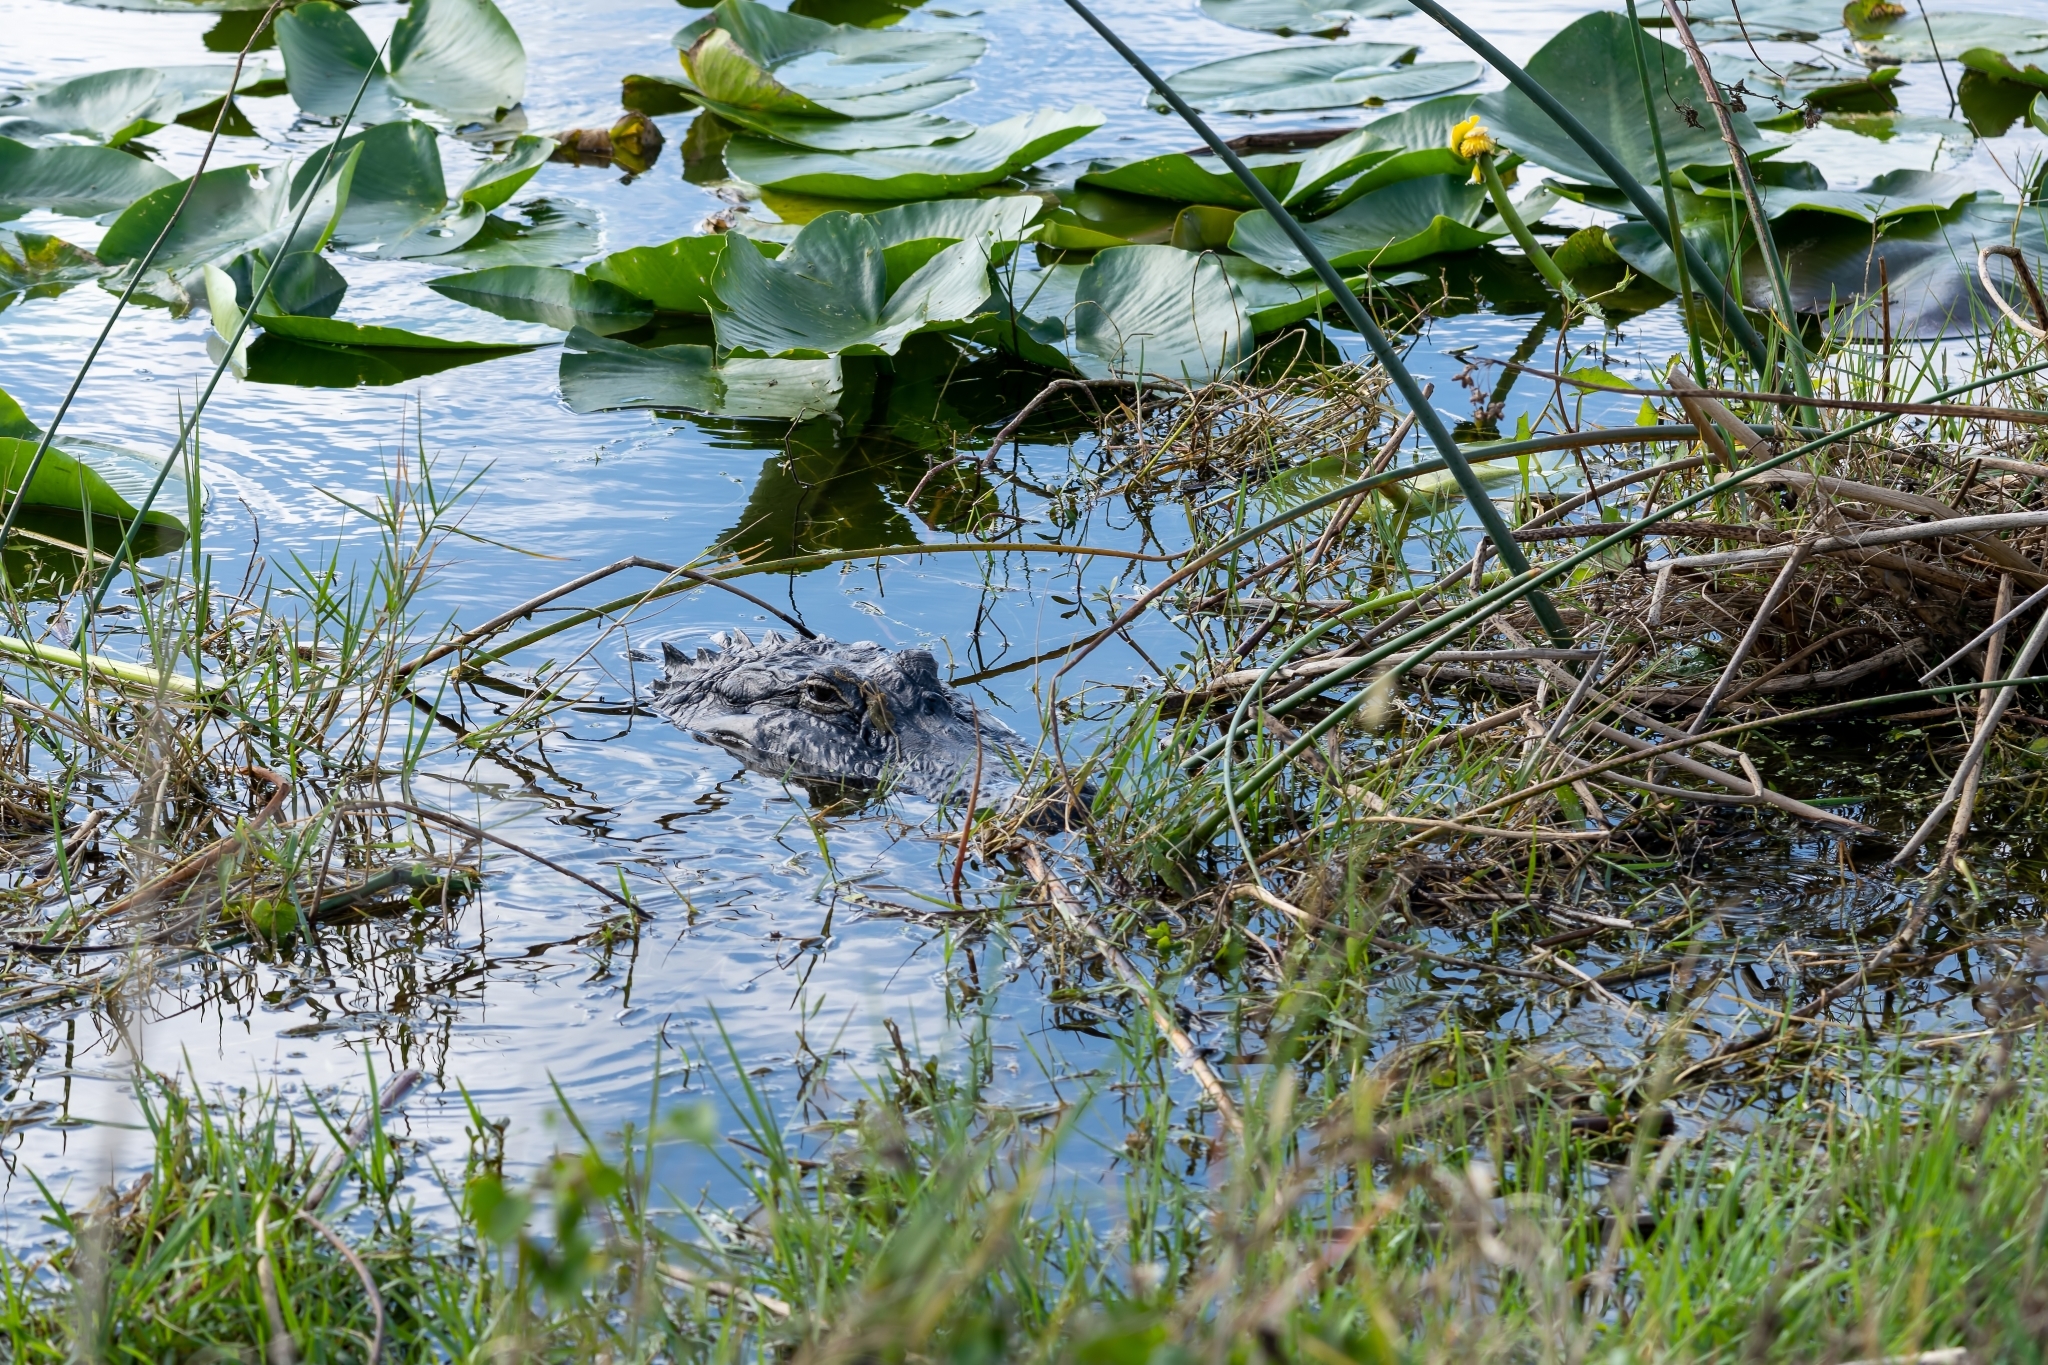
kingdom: Animalia
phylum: Chordata
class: Crocodylia
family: Alligatoridae
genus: Alligator
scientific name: Alligator mississippiensis
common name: American alligator
